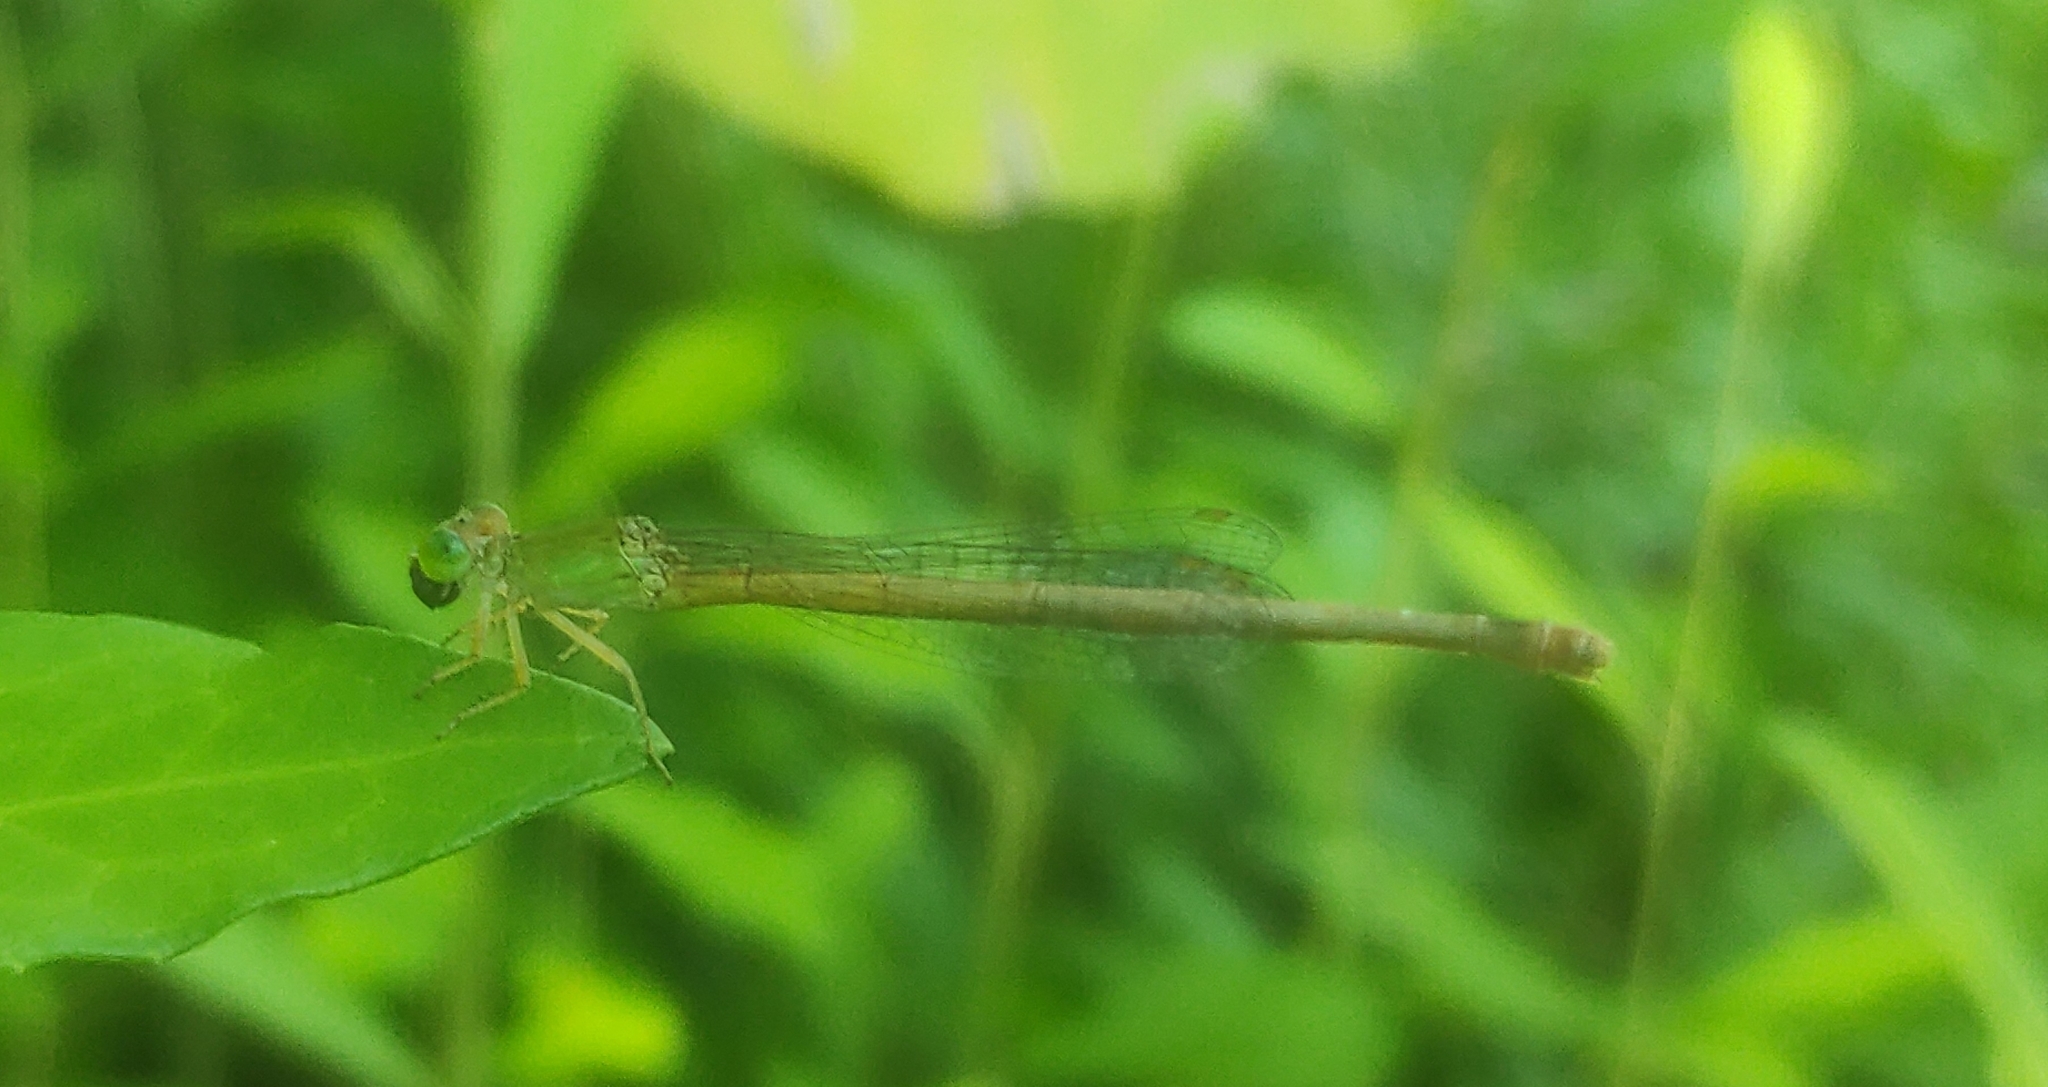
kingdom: Animalia
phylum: Arthropoda
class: Insecta
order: Odonata
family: Coenagrionidae
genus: Ceriagrion
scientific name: Ceriagrion coromandelianum
